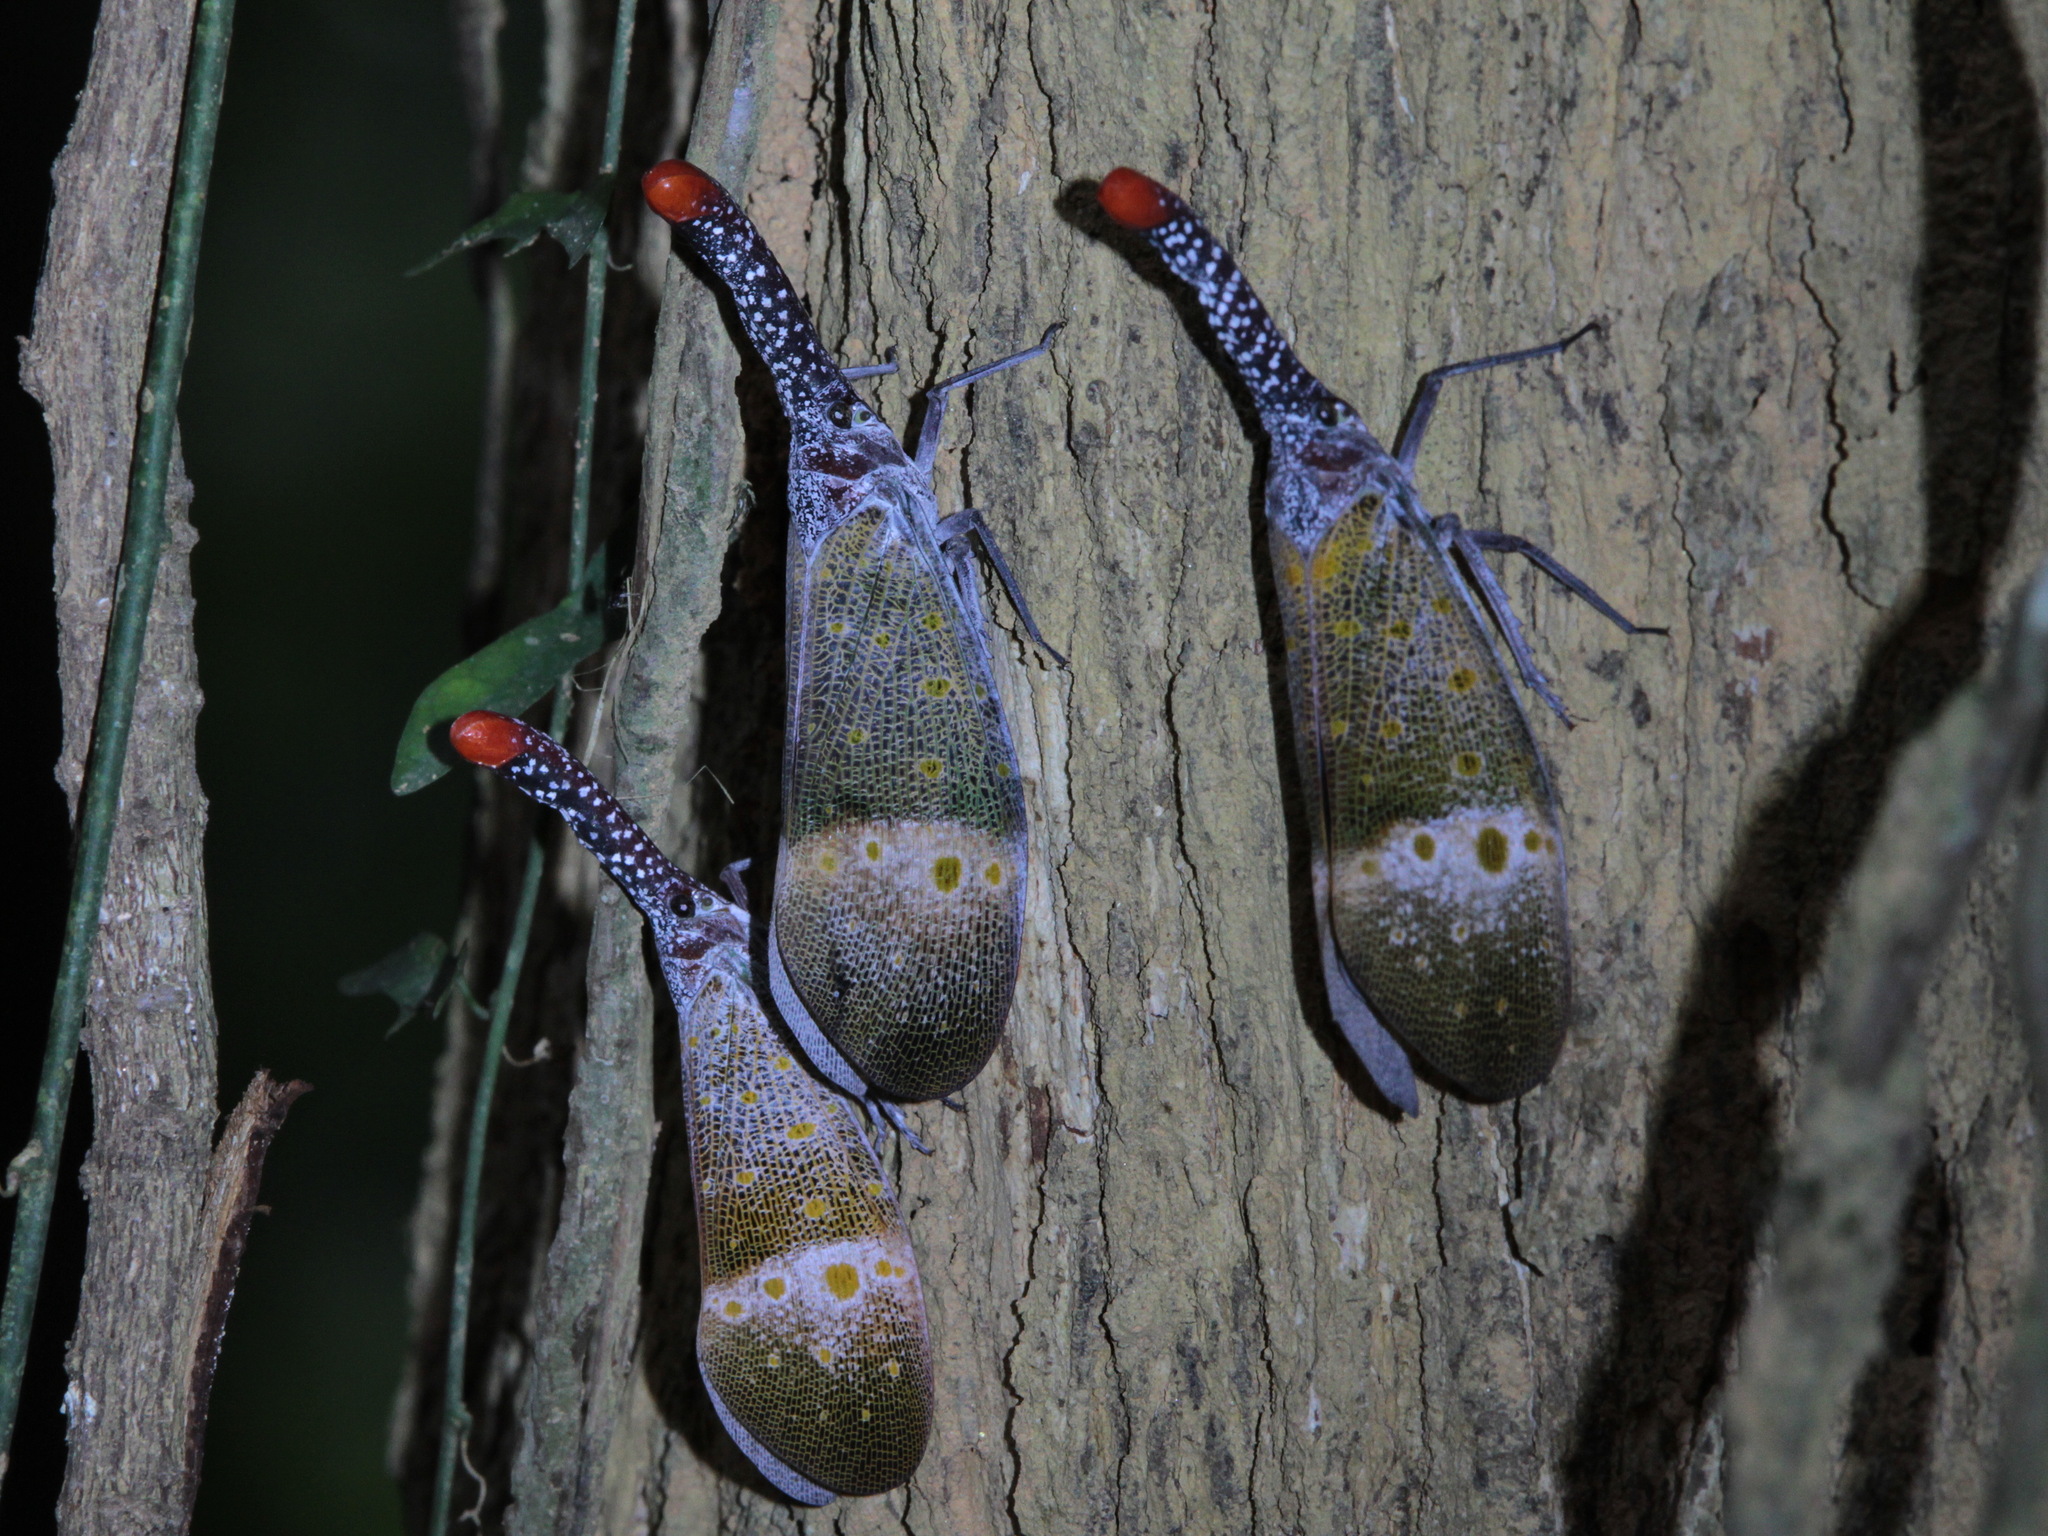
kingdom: Animalia
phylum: Arthropoda
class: Insecta
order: Hemiptera
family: Fulgoridae
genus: Pyrops
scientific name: Pyrops pyrorhynchus
